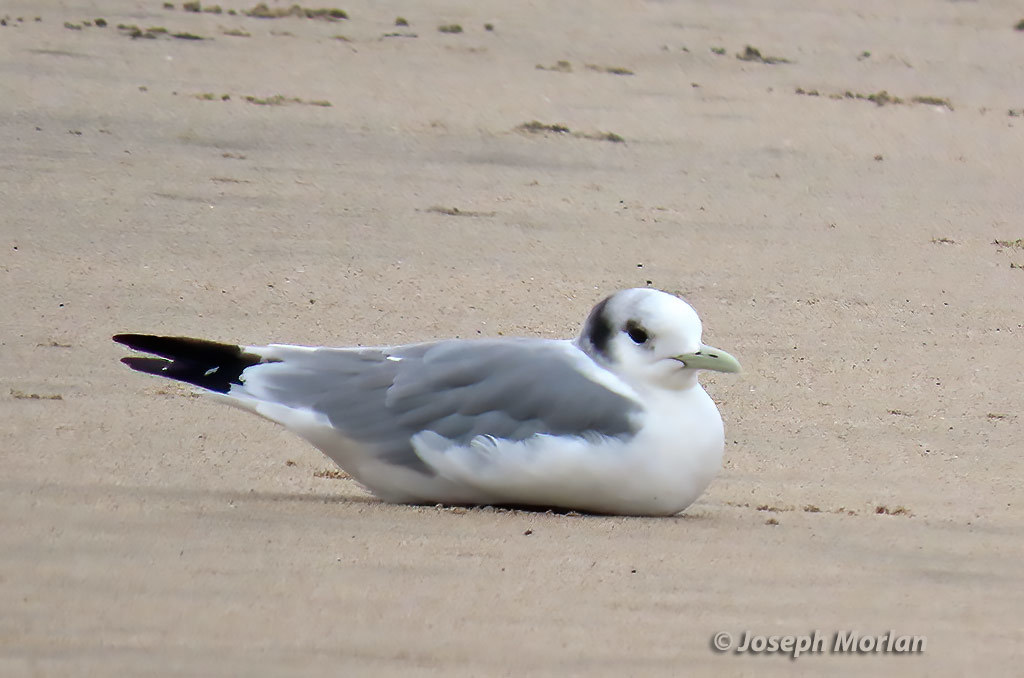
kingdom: Animalia
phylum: Chordata
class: Aves
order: Charadriiformes
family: Laridae
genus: Rissa
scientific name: Rissa tridactyla
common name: Black-legged kittiwake
